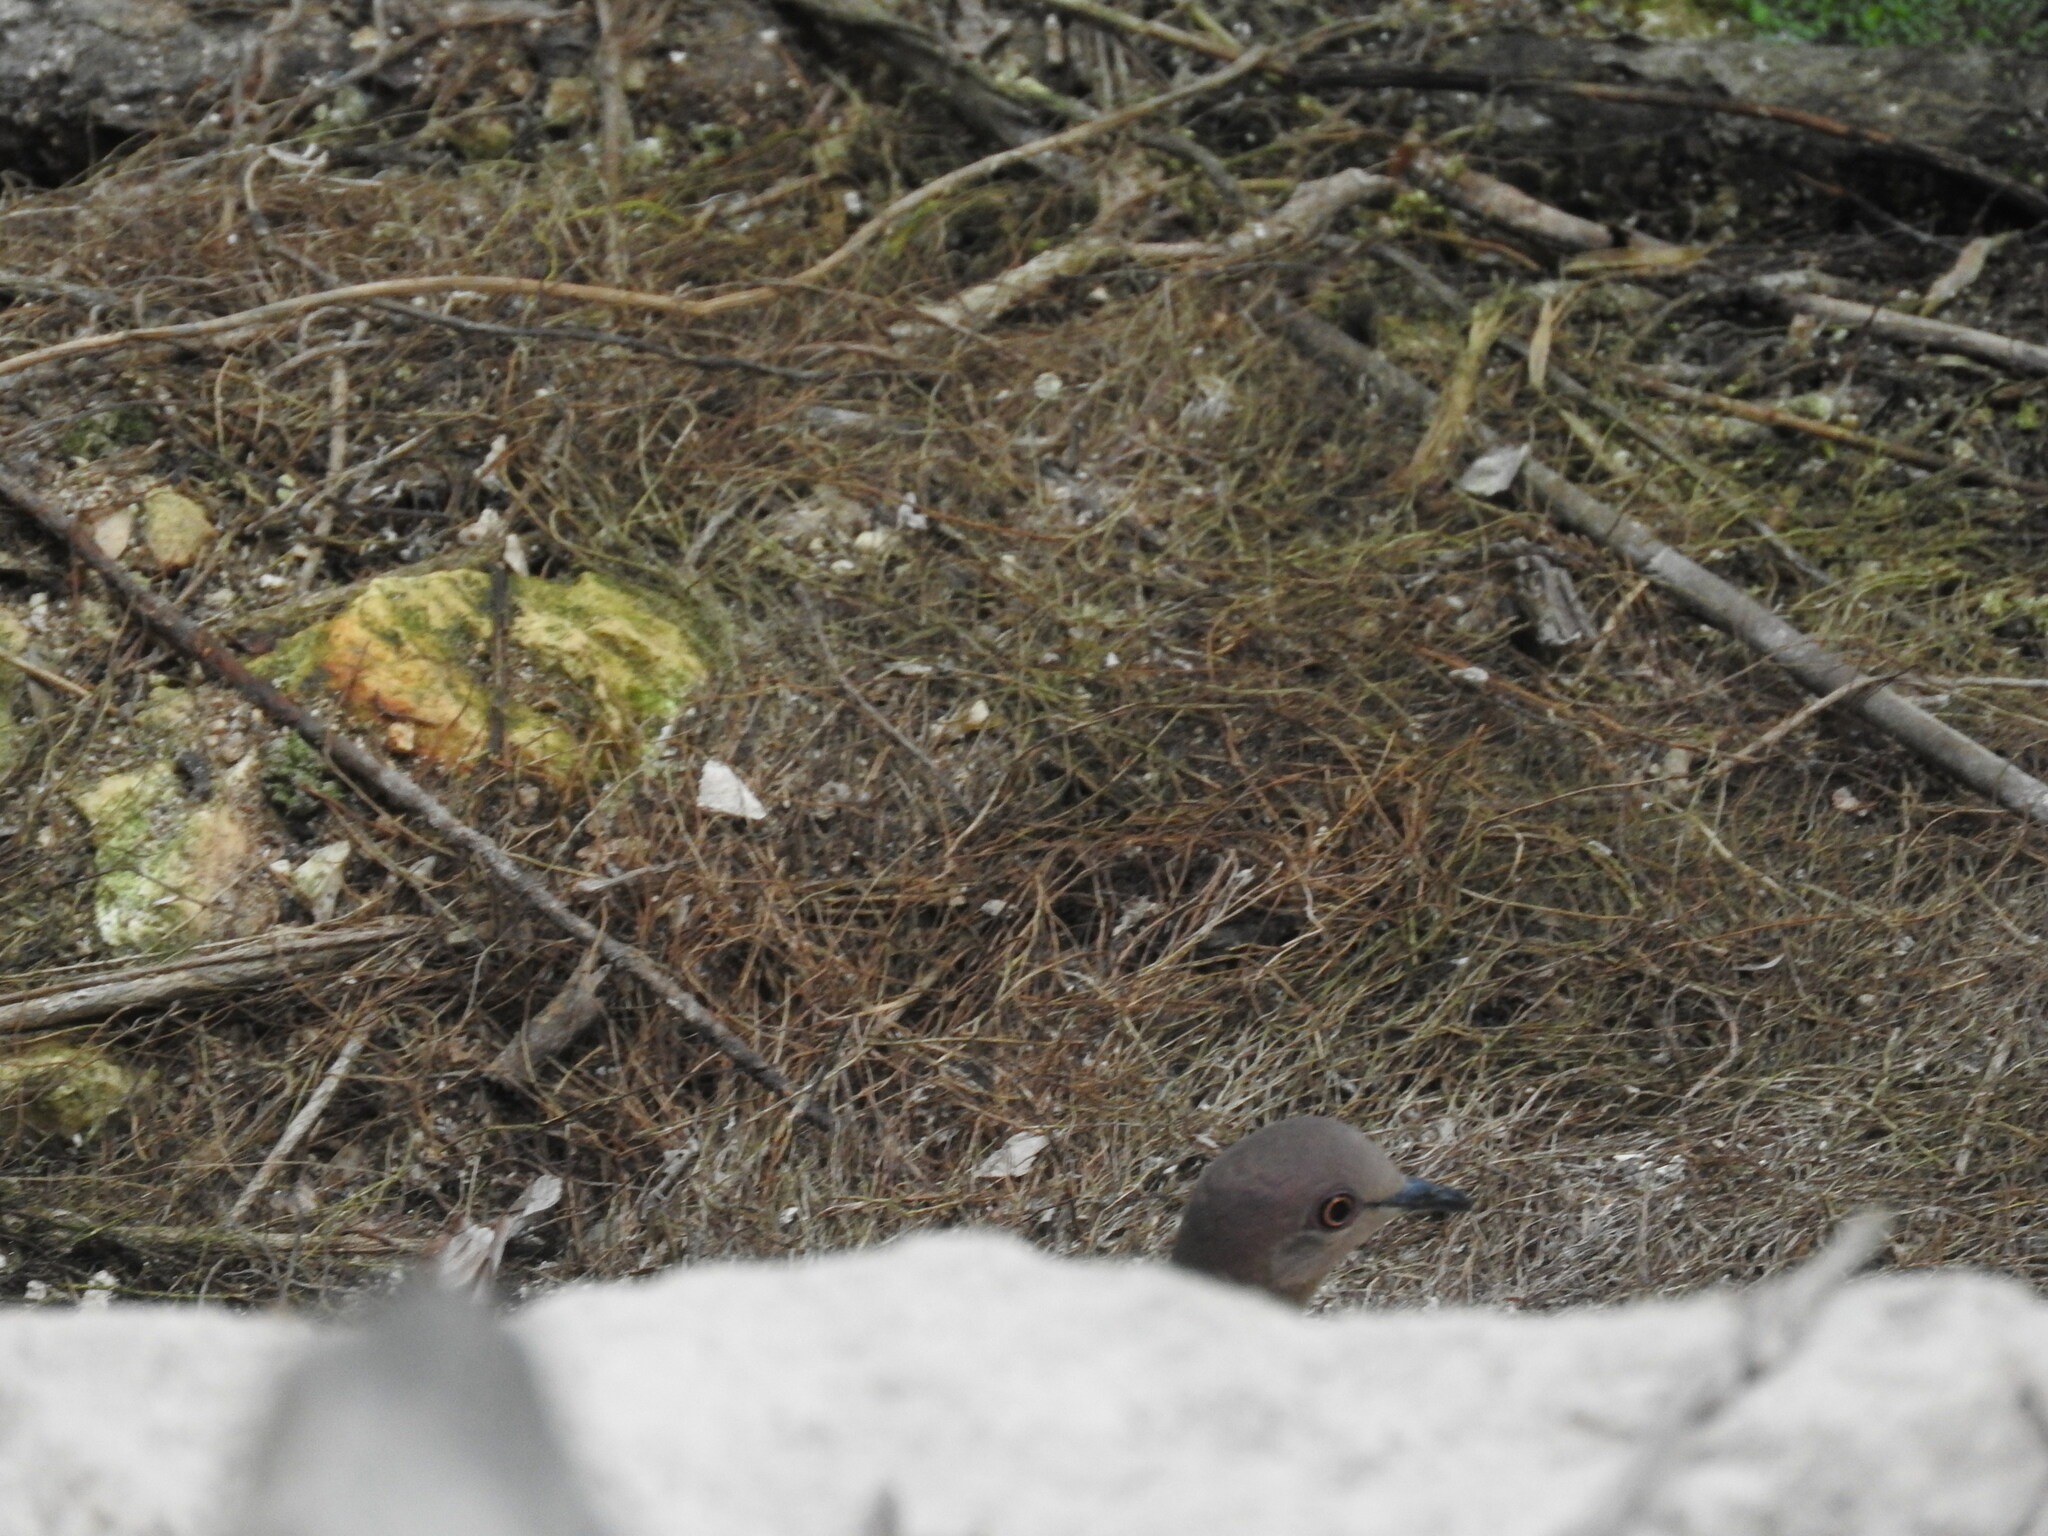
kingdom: Animalia
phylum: Chordata
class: Aves
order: Columbiformes
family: Columbidae
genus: Leptotila
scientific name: Leptotila verreauxi
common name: White-tipped dove
